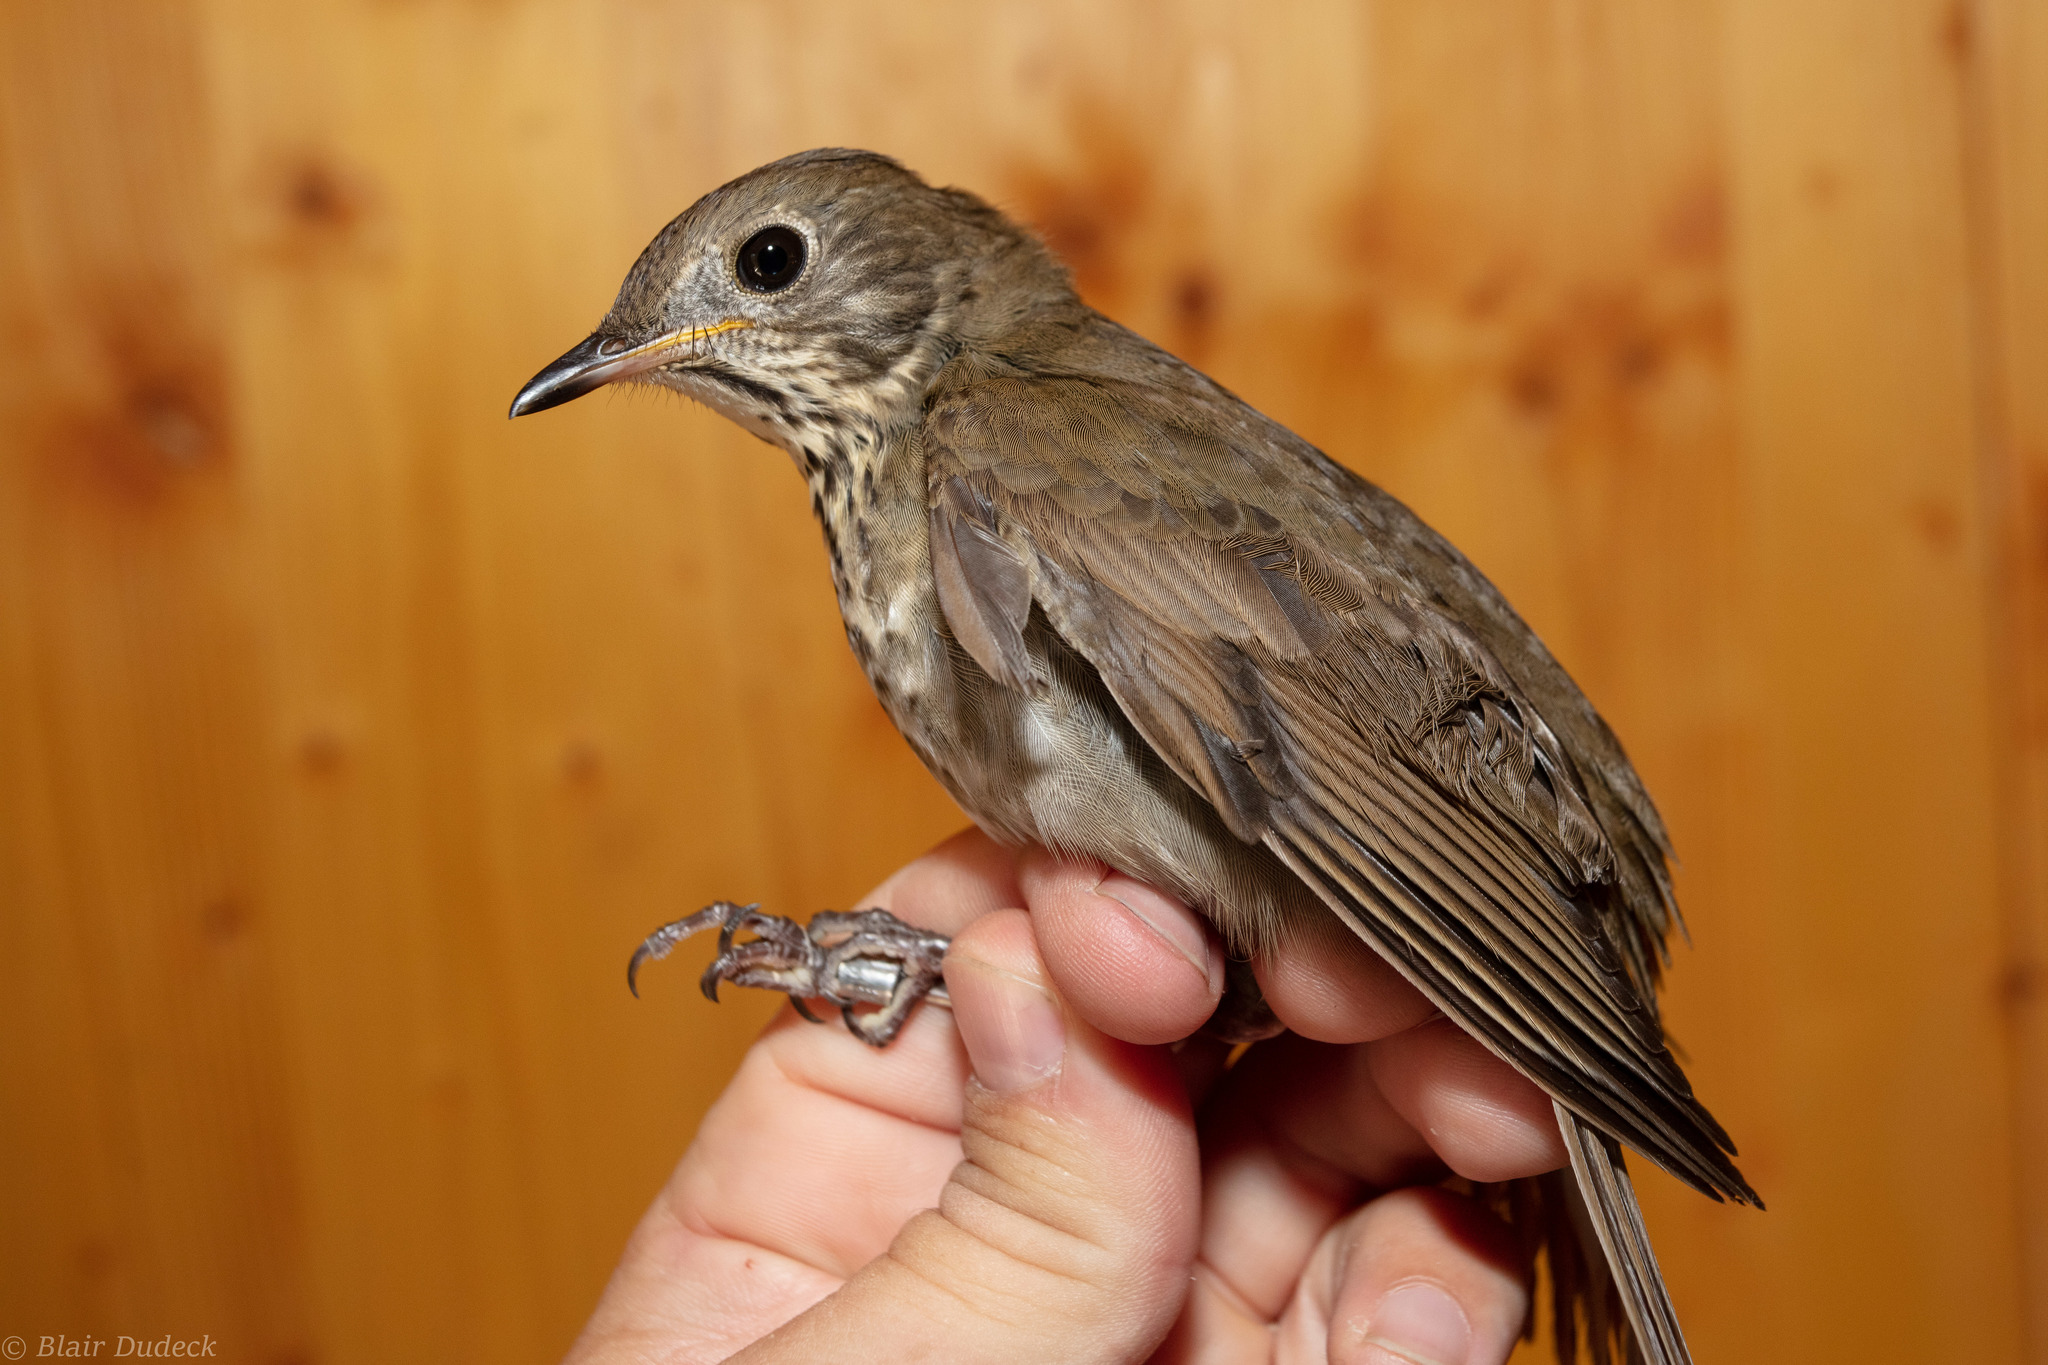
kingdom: Animalia
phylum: Chordata
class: Aves
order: Passeriformes
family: Turdidae
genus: Catharus
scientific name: Catharus bicknelli
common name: Bicknell's thrush
